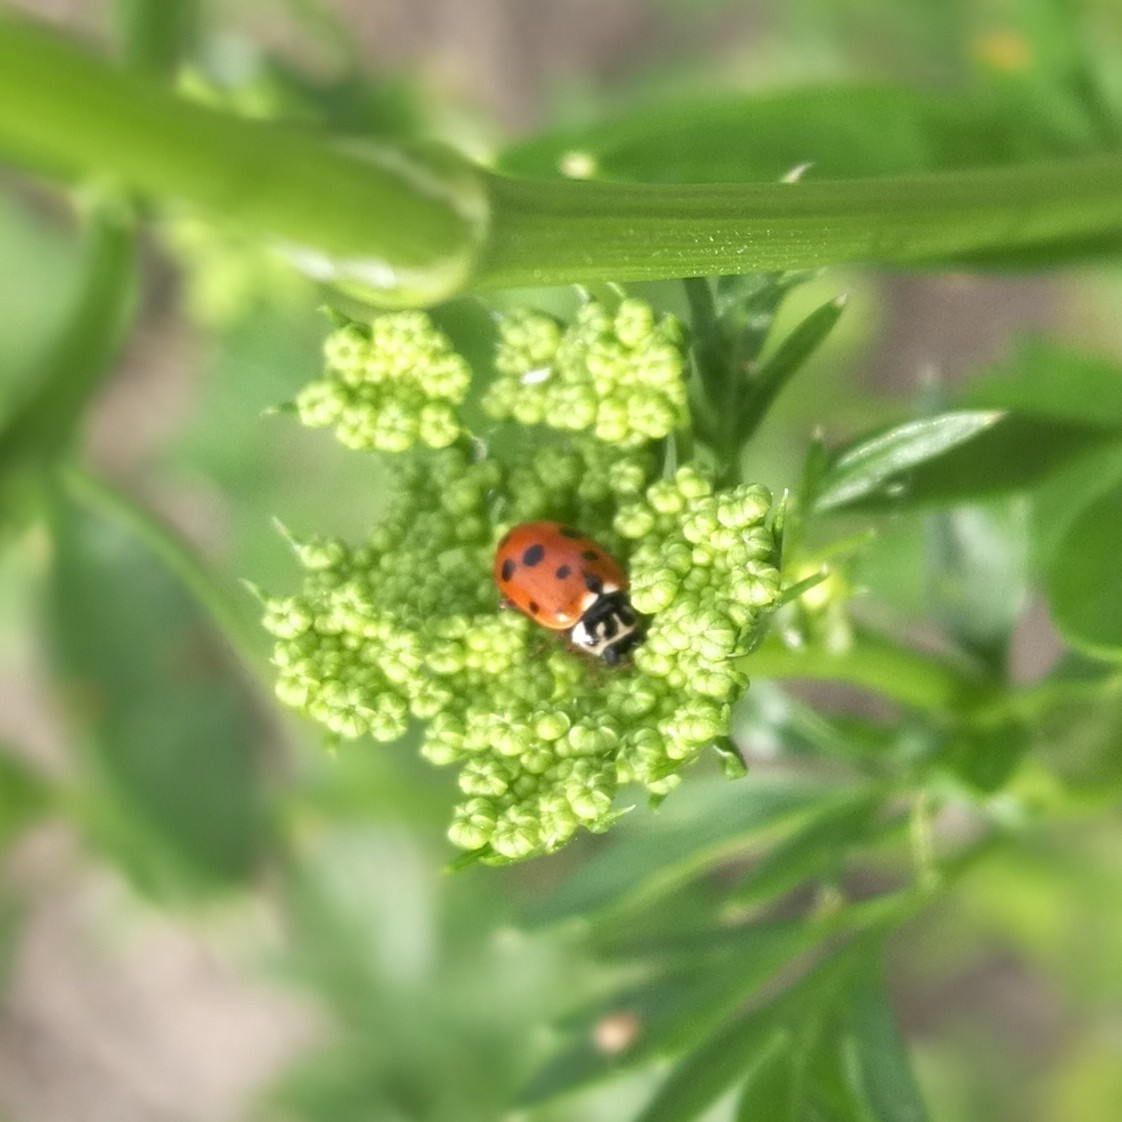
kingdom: Animalia
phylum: Arthropoda
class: Insecta
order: Coleoptera
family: Coccinellidae
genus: Hippodamia
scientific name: Hippodamia variegata
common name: Ladybird beetle
